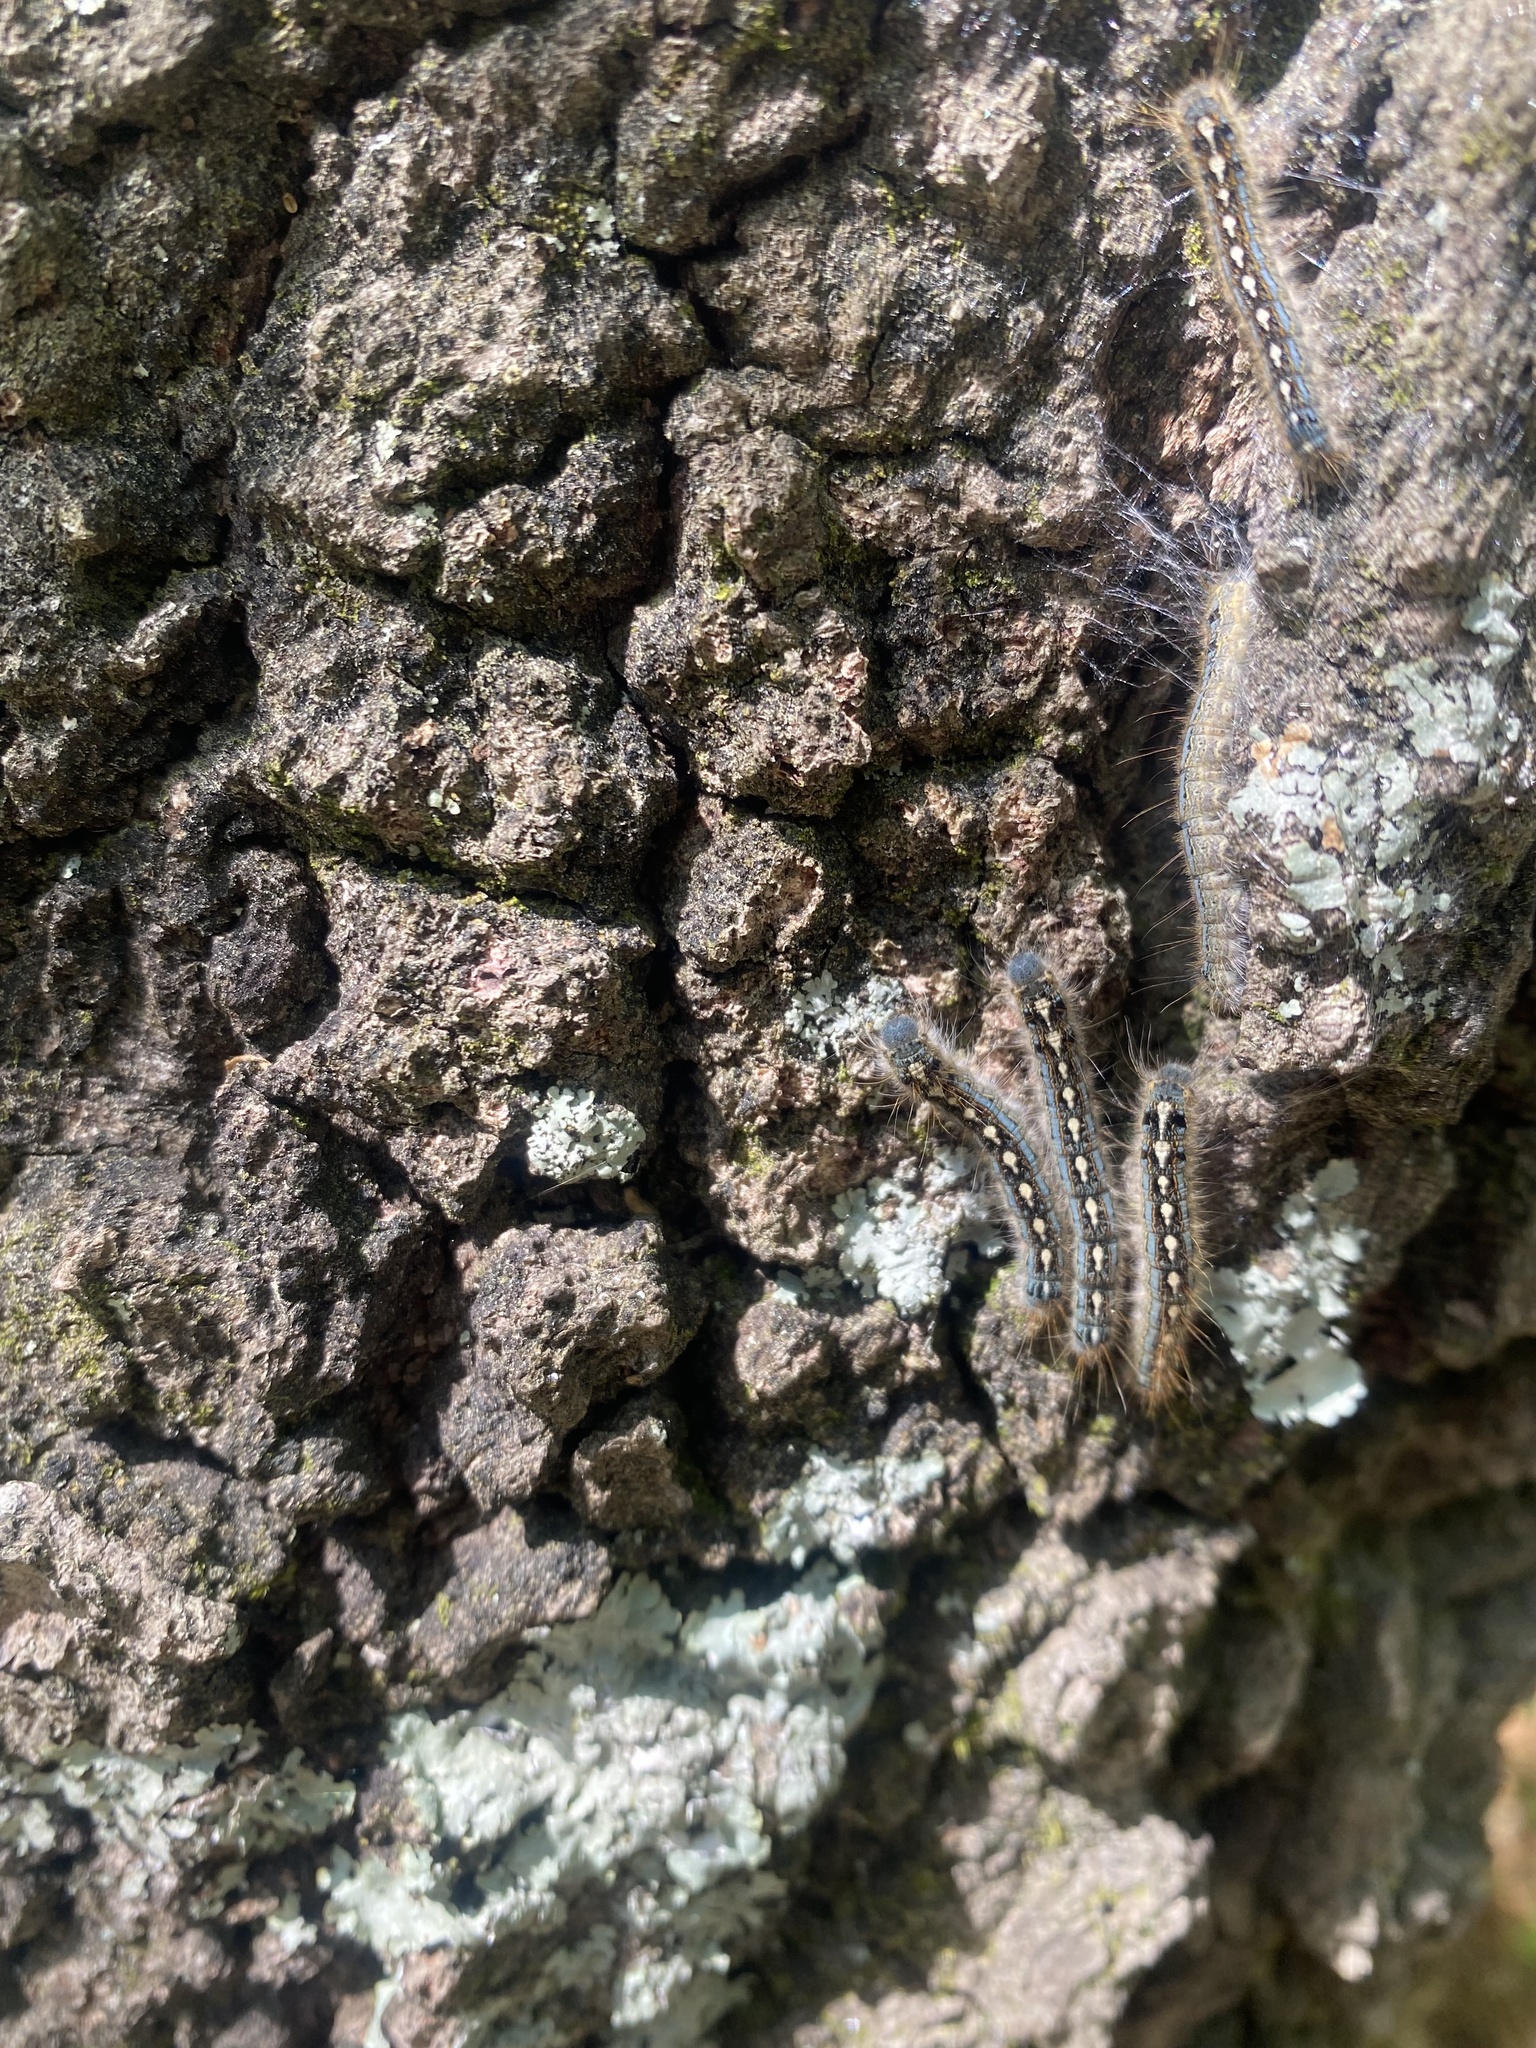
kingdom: Animalia
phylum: Arthropoda
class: Insecta
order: Lepidoptera
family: Lasiocampidae
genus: Malacosoma
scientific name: Malacosoma disstria
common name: Forest tent caterpillar
